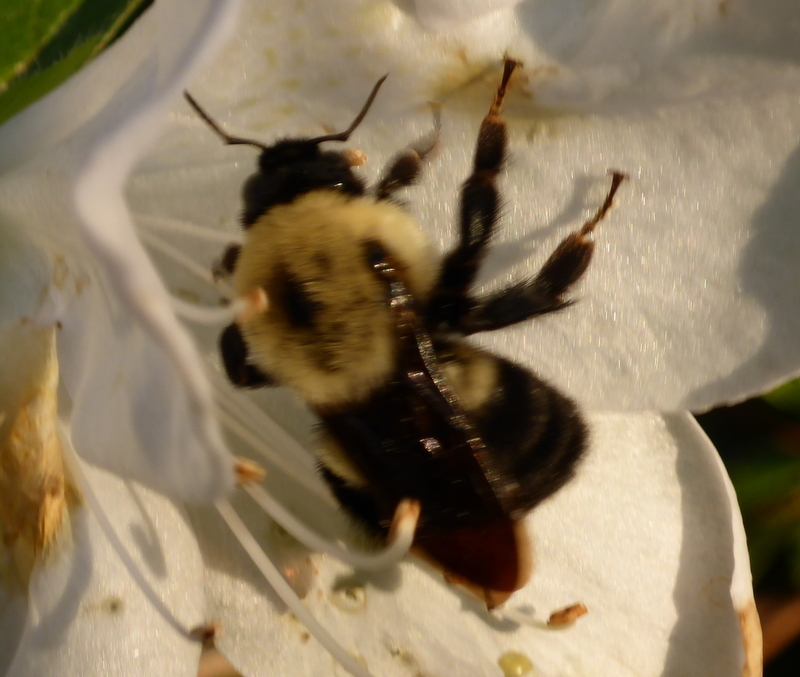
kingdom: Animalia
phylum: Arthropoda
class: Insecta
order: Hymenoptera
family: Apidae
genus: Bombus
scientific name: Bombus griseocollis
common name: Brown-belted bumble bee
